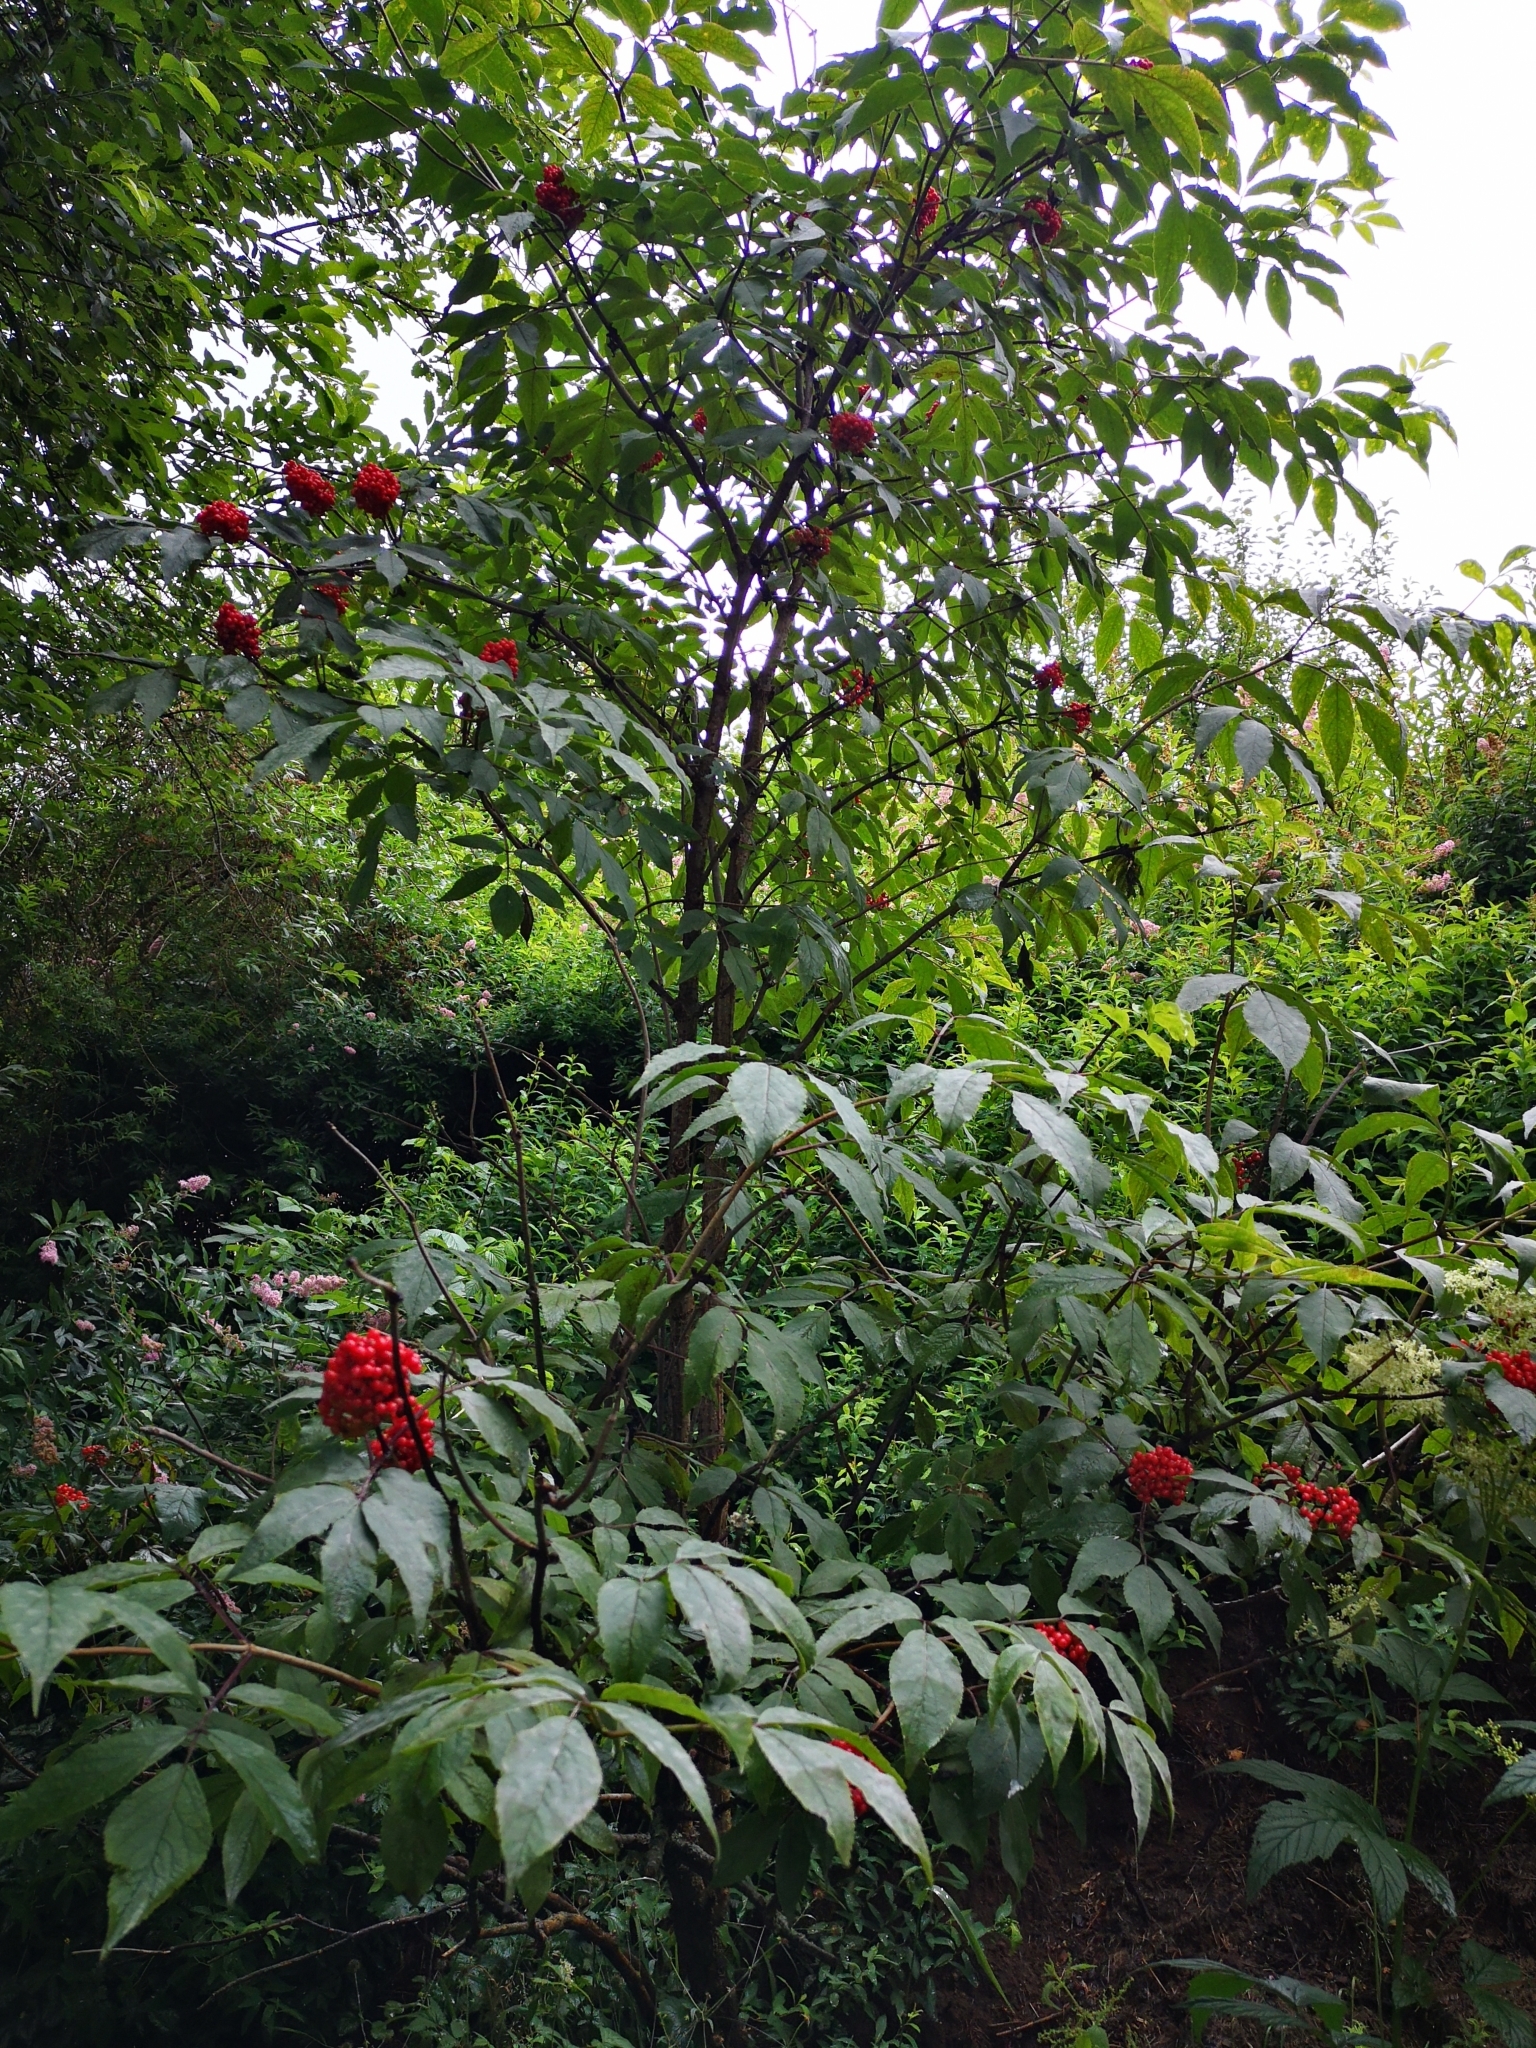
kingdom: Plantae
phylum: Tracheophyta
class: Magnoliopsida
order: Dipsacales
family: Viburnaceae
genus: Sambucus
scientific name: Sambucus racemosa
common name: Red-berried elder
